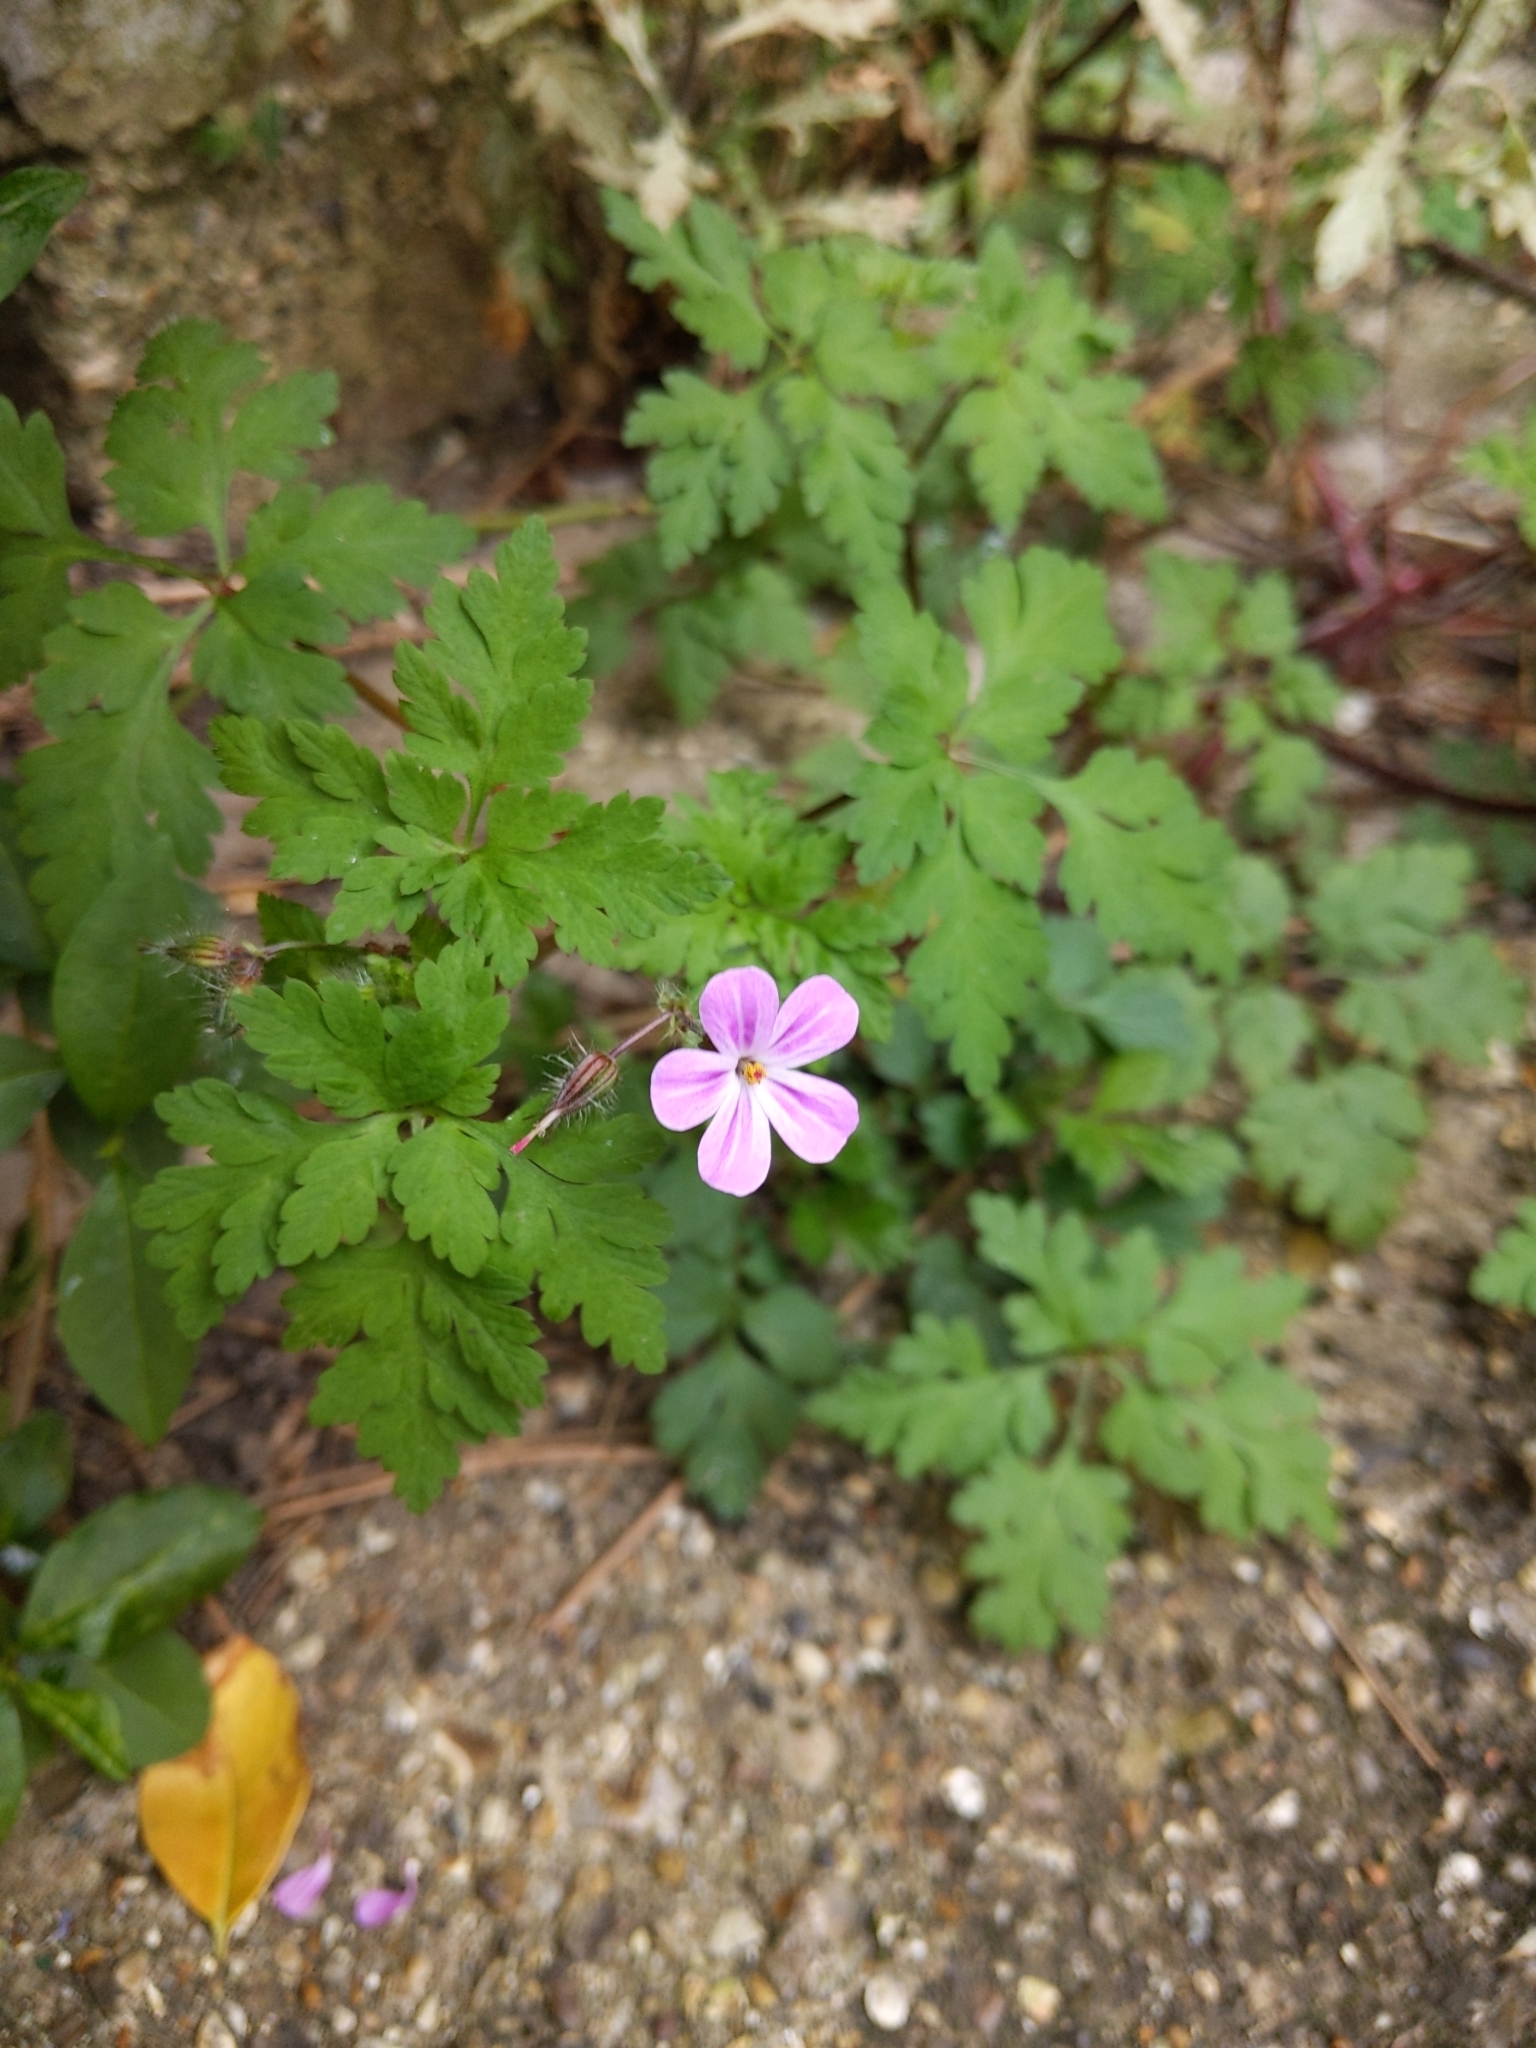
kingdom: Plantae
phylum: Tracheophyta
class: Magnoliopsida
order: Geraniales
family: Geraniaceae
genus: Geranium
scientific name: Geranium robertianum
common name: Herb-robert
